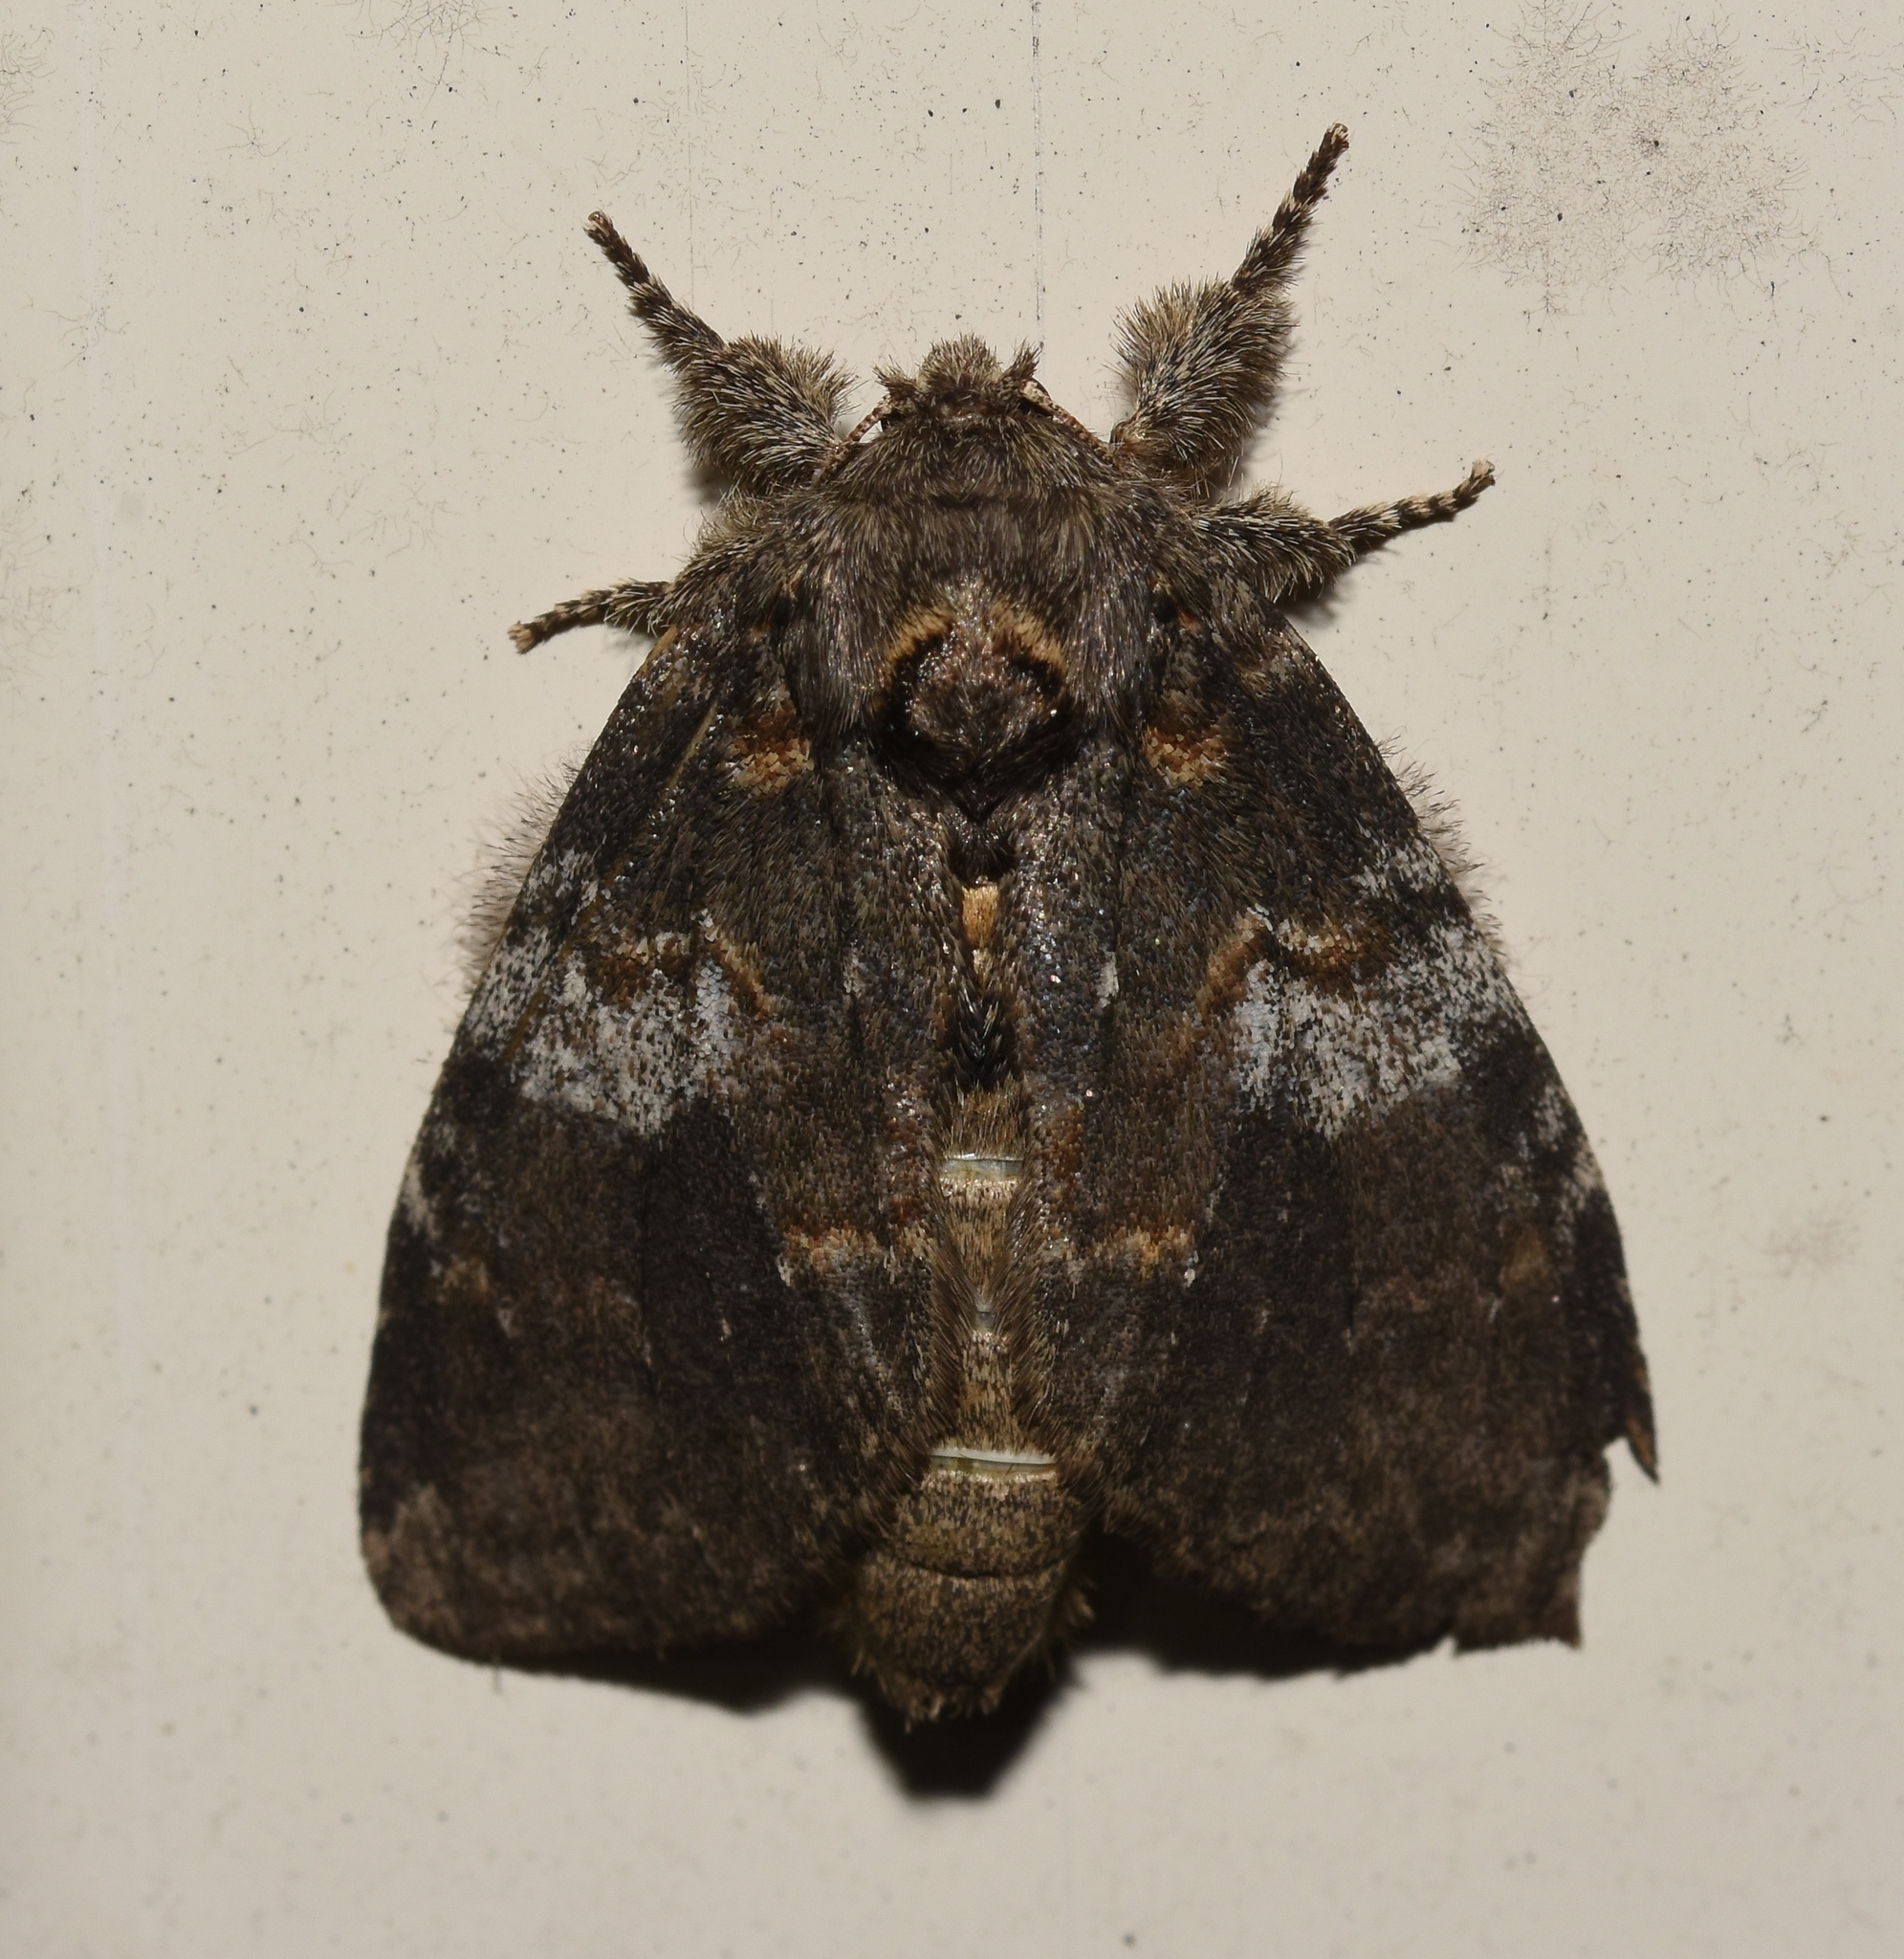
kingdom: Animalia
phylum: Arthropoda
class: Insecta
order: Lepidoptera
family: Notodontidae
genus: Peridea
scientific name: Peridea angulosa
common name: Angulose prominent
